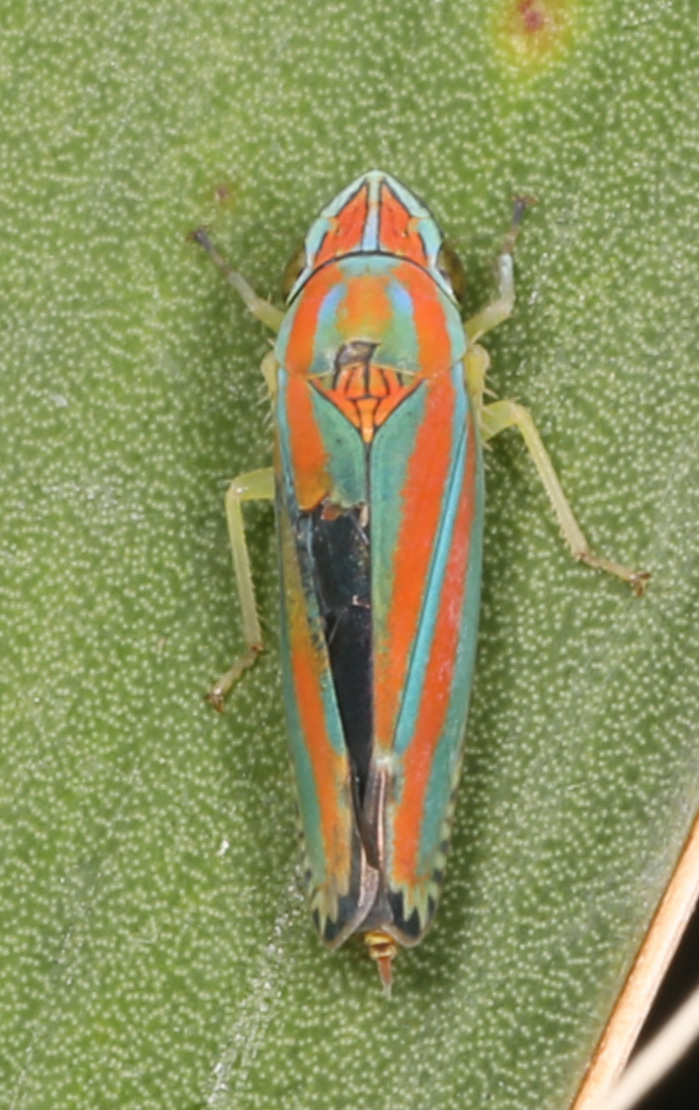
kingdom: Animalia
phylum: Arthropoda
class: Insecta
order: Hemiptera
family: Cicadellidae
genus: Graphocephala
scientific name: Graphocephala versuta
